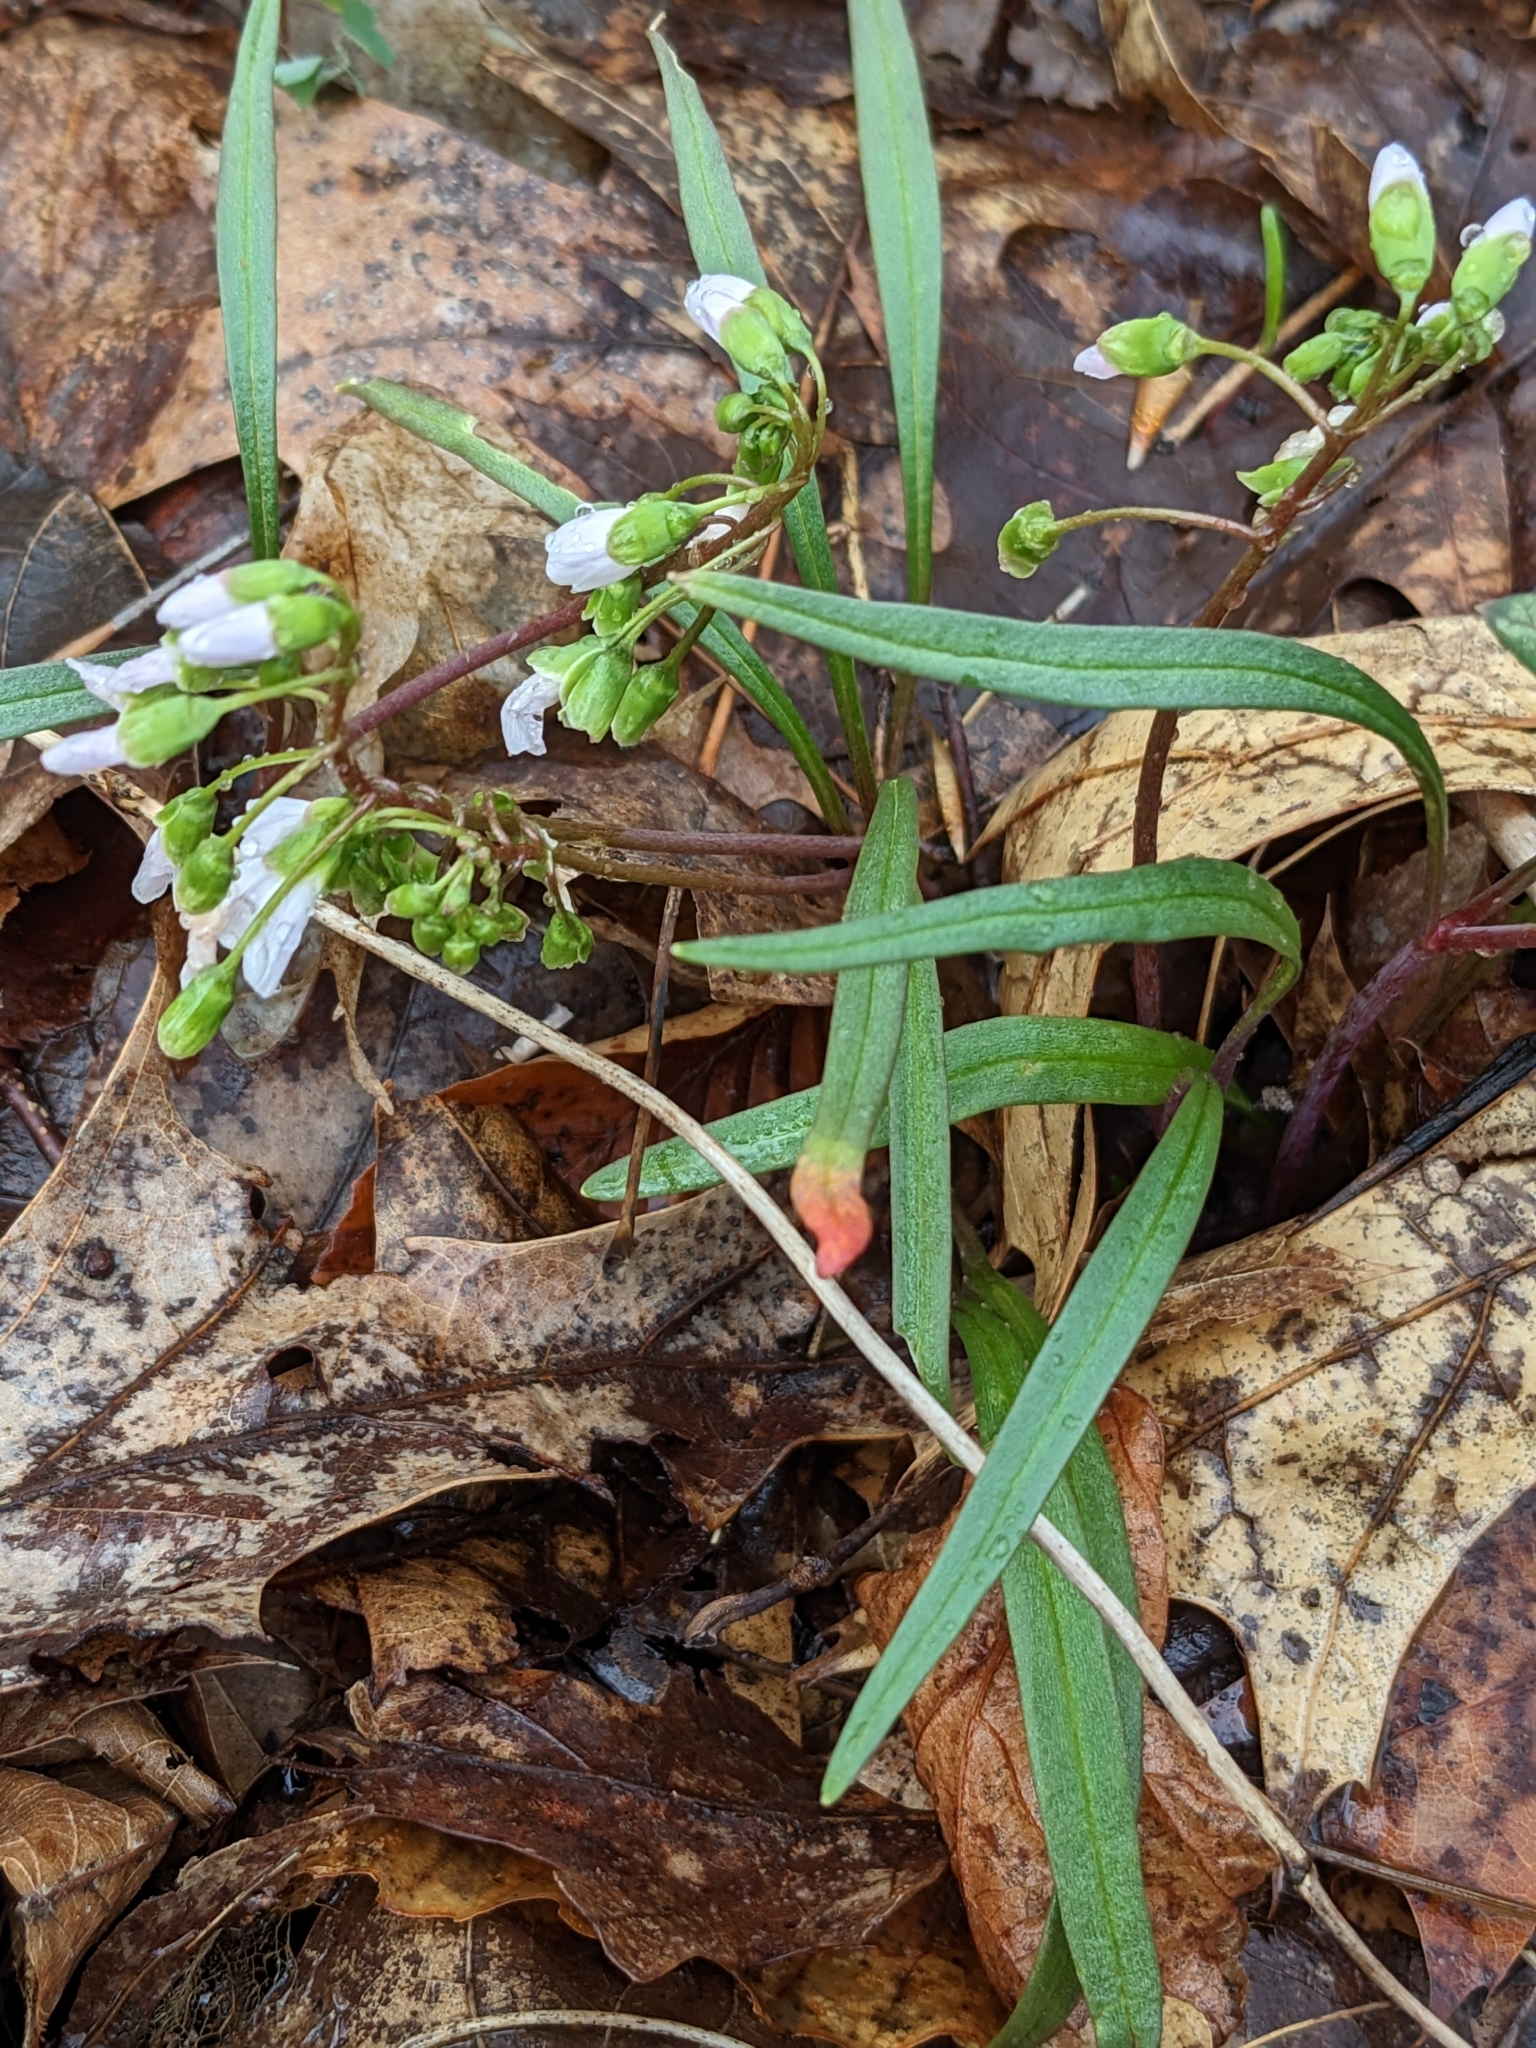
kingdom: Plantae
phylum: Tracheophyta
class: Magnoliopsida
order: Caryophyllales
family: Montiaceae
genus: Claytonia
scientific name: Claytonia virginica
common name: Virginia springbeauty
